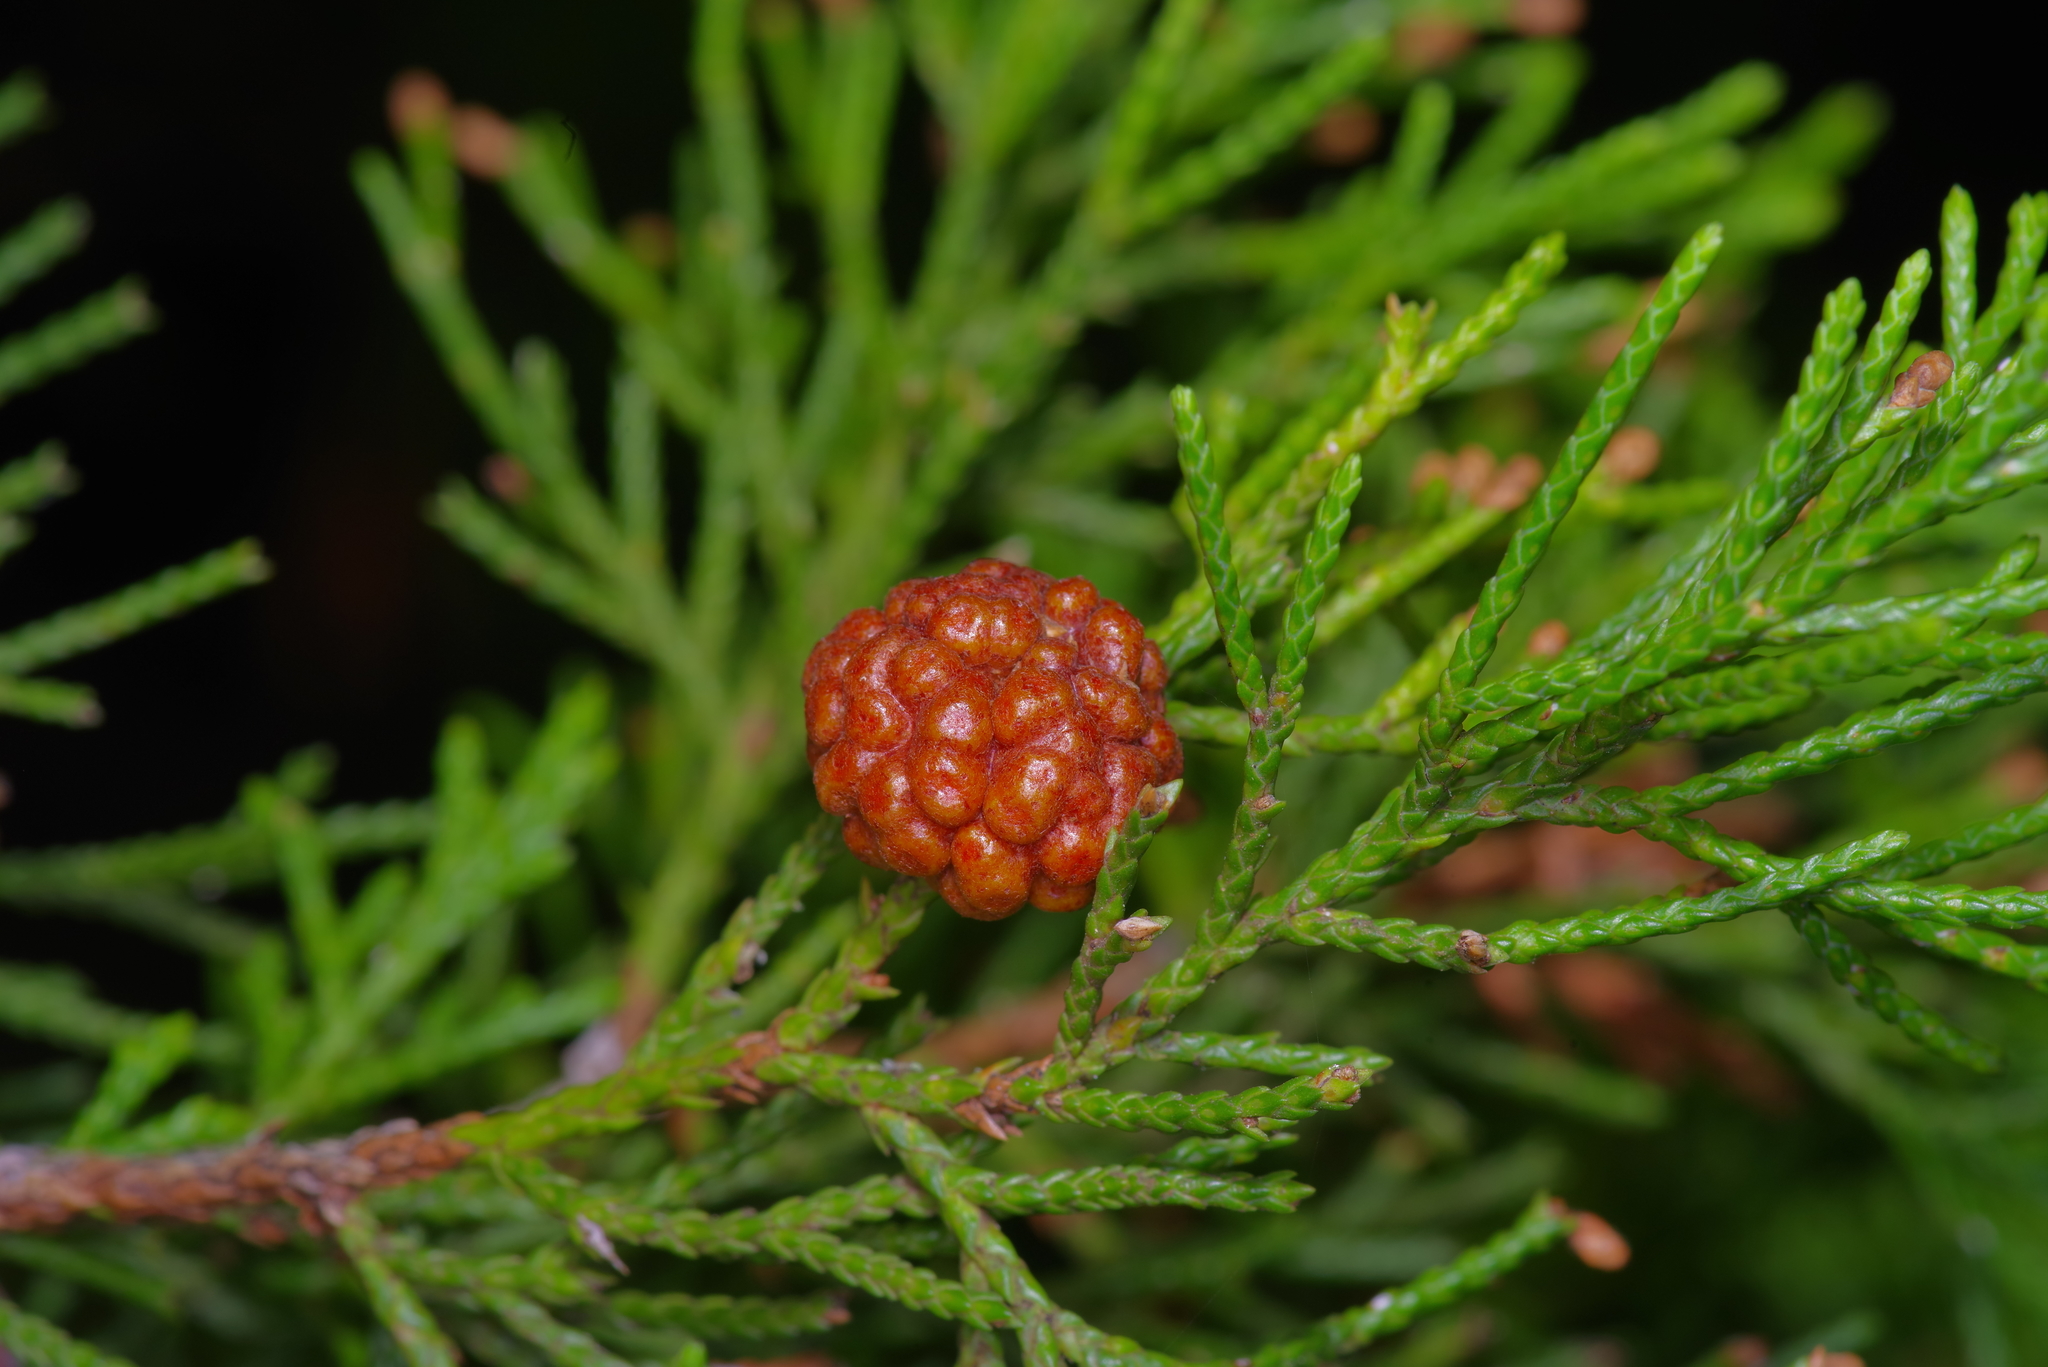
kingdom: Fungi
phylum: Basidiomycota
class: Pucciniomycetes
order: Pucciniales
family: Gymnosporangiaceae
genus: Gymnosporangium
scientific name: Gymnosporangium juniperi-virginianae
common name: Juniper-apple rust
